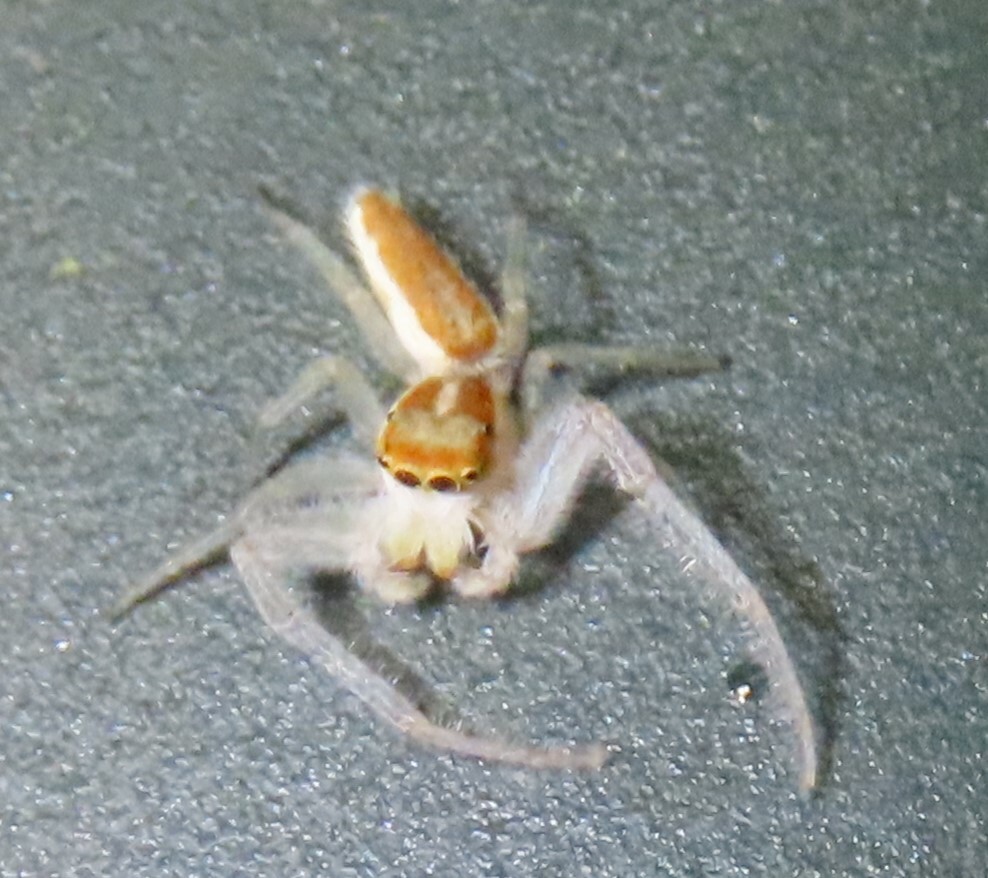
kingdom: Animalia
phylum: Arthropoda
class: Arachnida
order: Araneae
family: Salticidae
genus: Hentzia
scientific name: Hentzia mitrata
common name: White-jawed jumping spider
